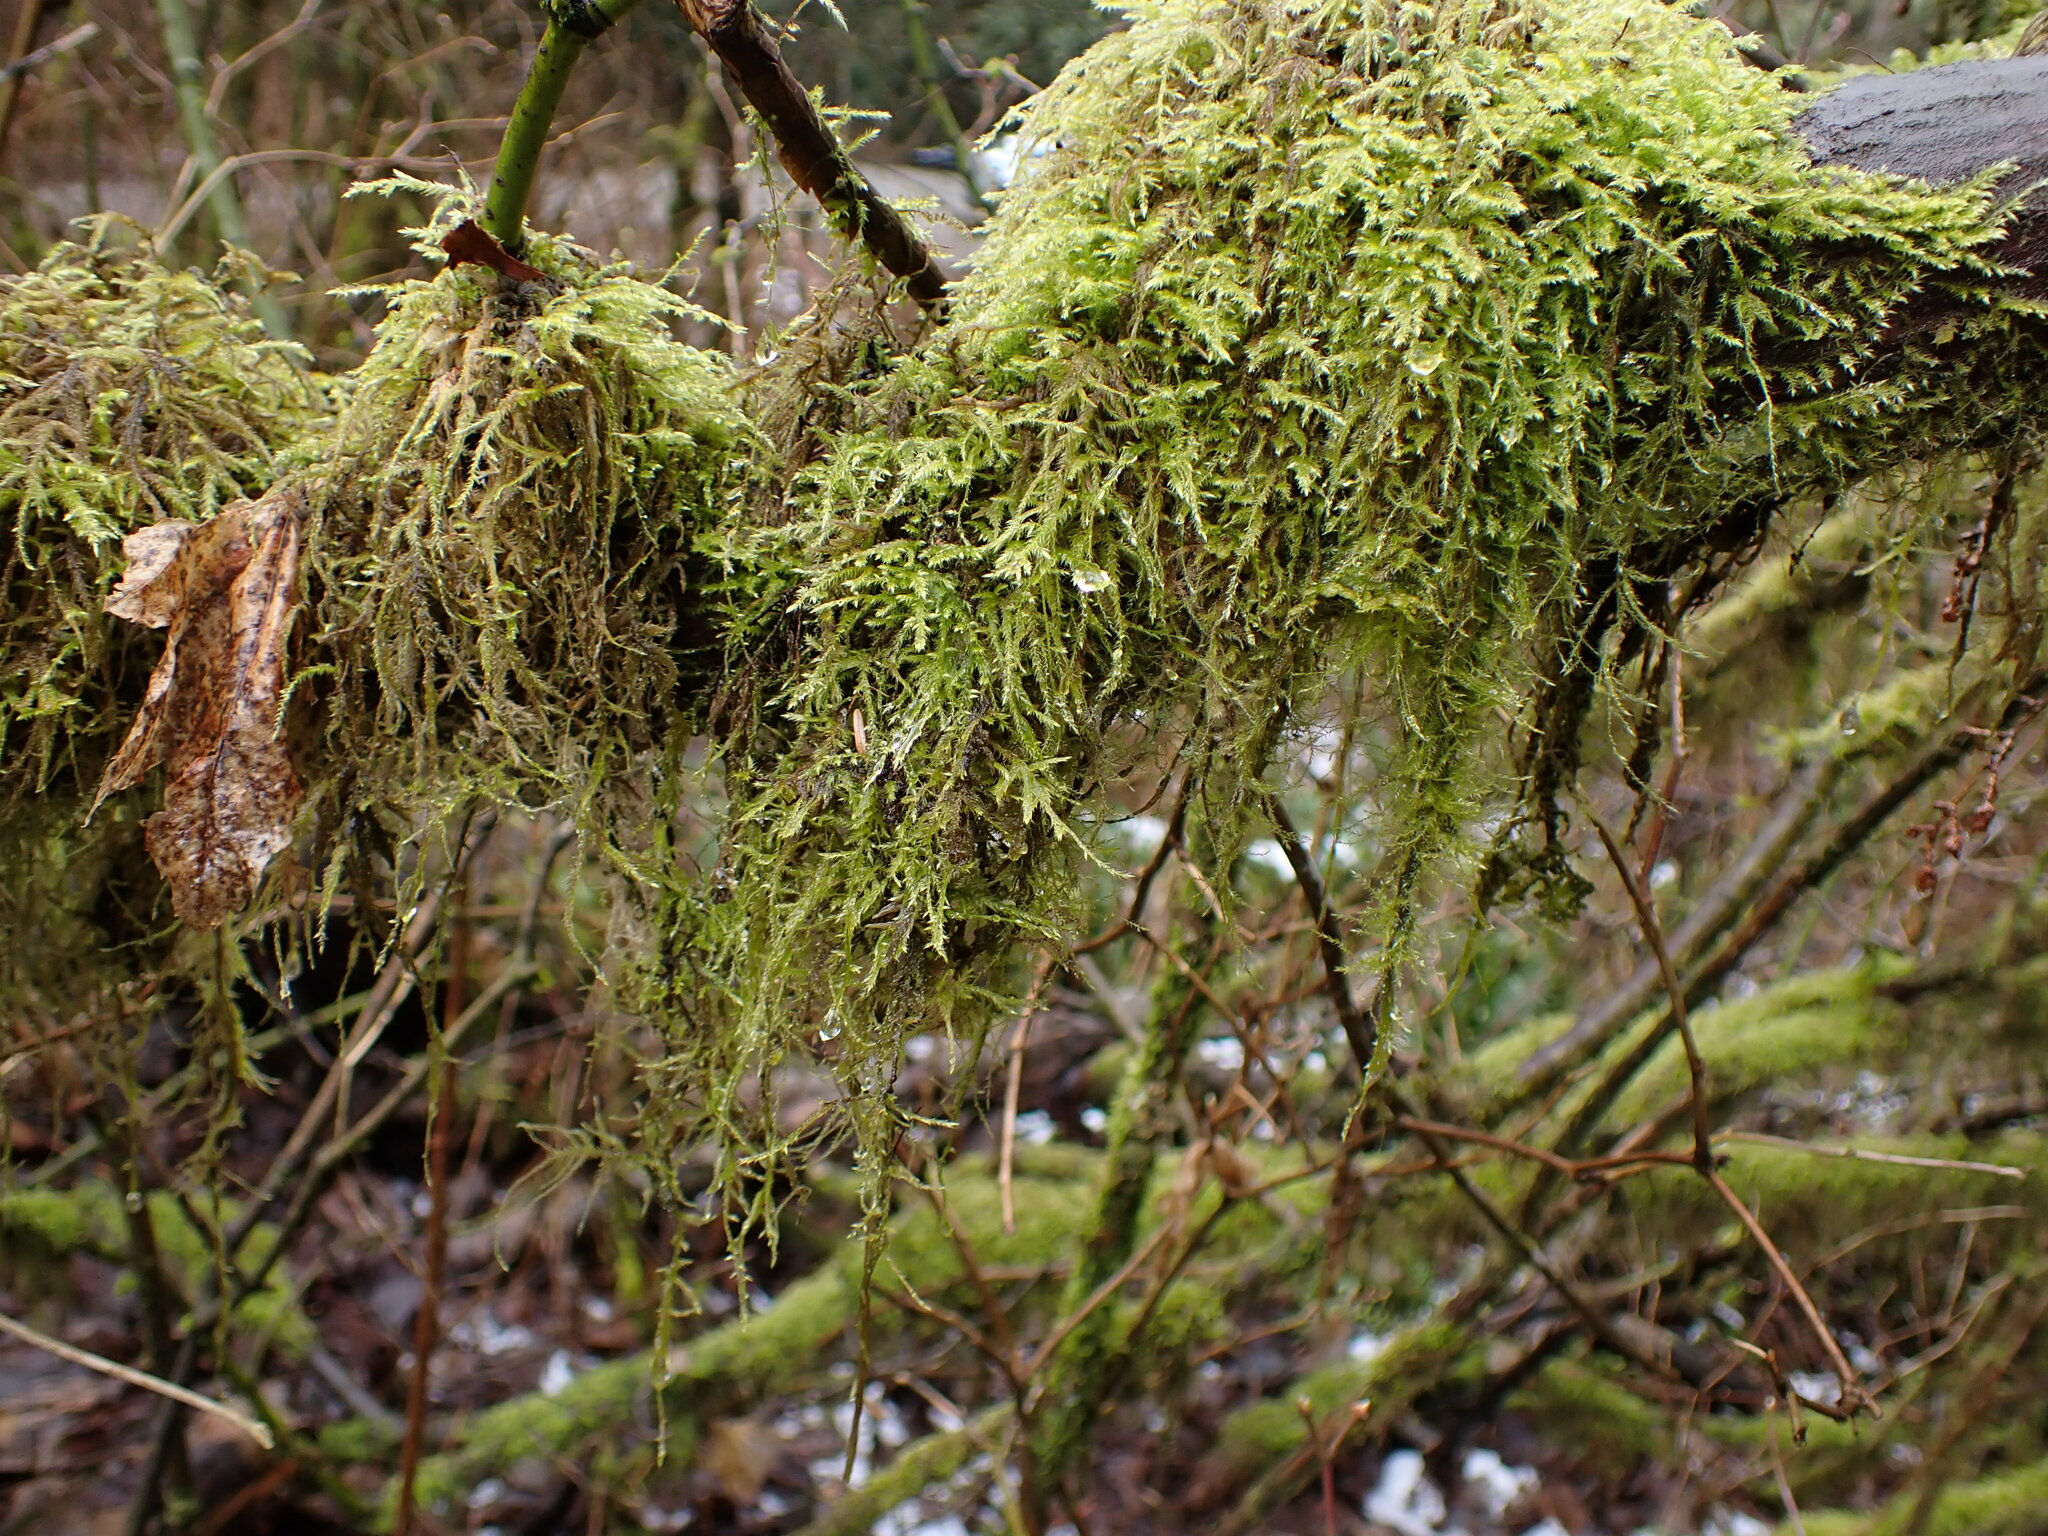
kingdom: Plantae
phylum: Bryophyta
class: Bryopsida
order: Hypnales
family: Lembophyllaceae
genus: Pseudisothecium
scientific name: Pseudisothecium stoloniferum
